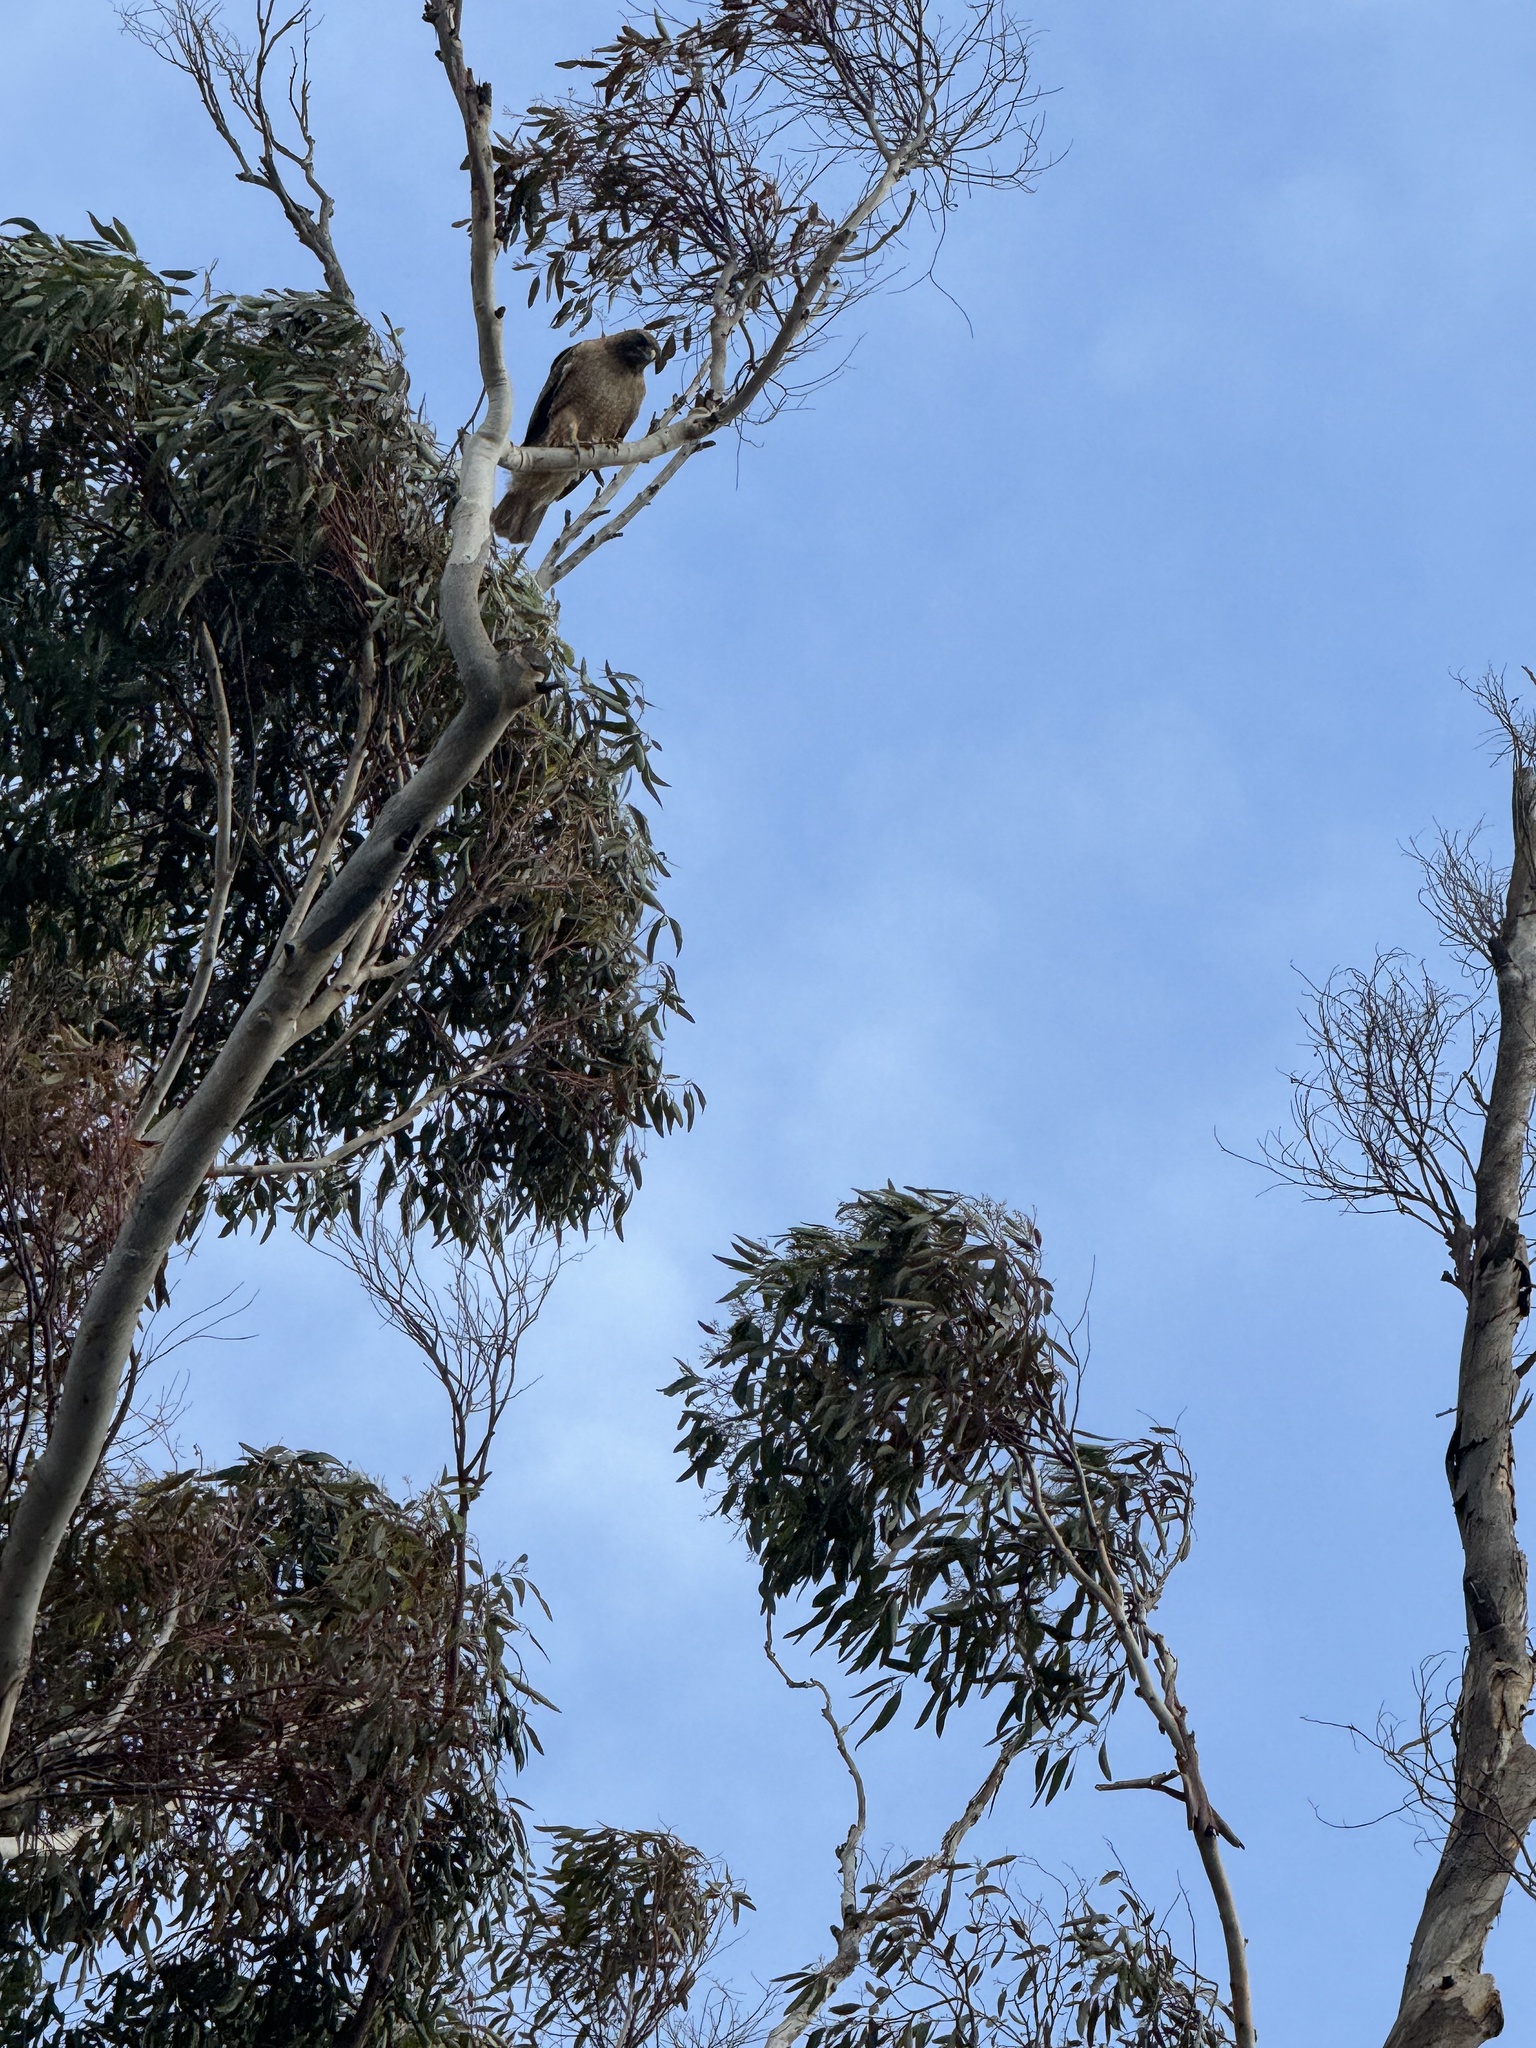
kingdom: Animalia
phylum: Chordata
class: Aves
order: Accipitriformes
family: Accipitridae
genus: Buteo
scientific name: Buteo jamaicensis
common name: Red-tailed hawk
